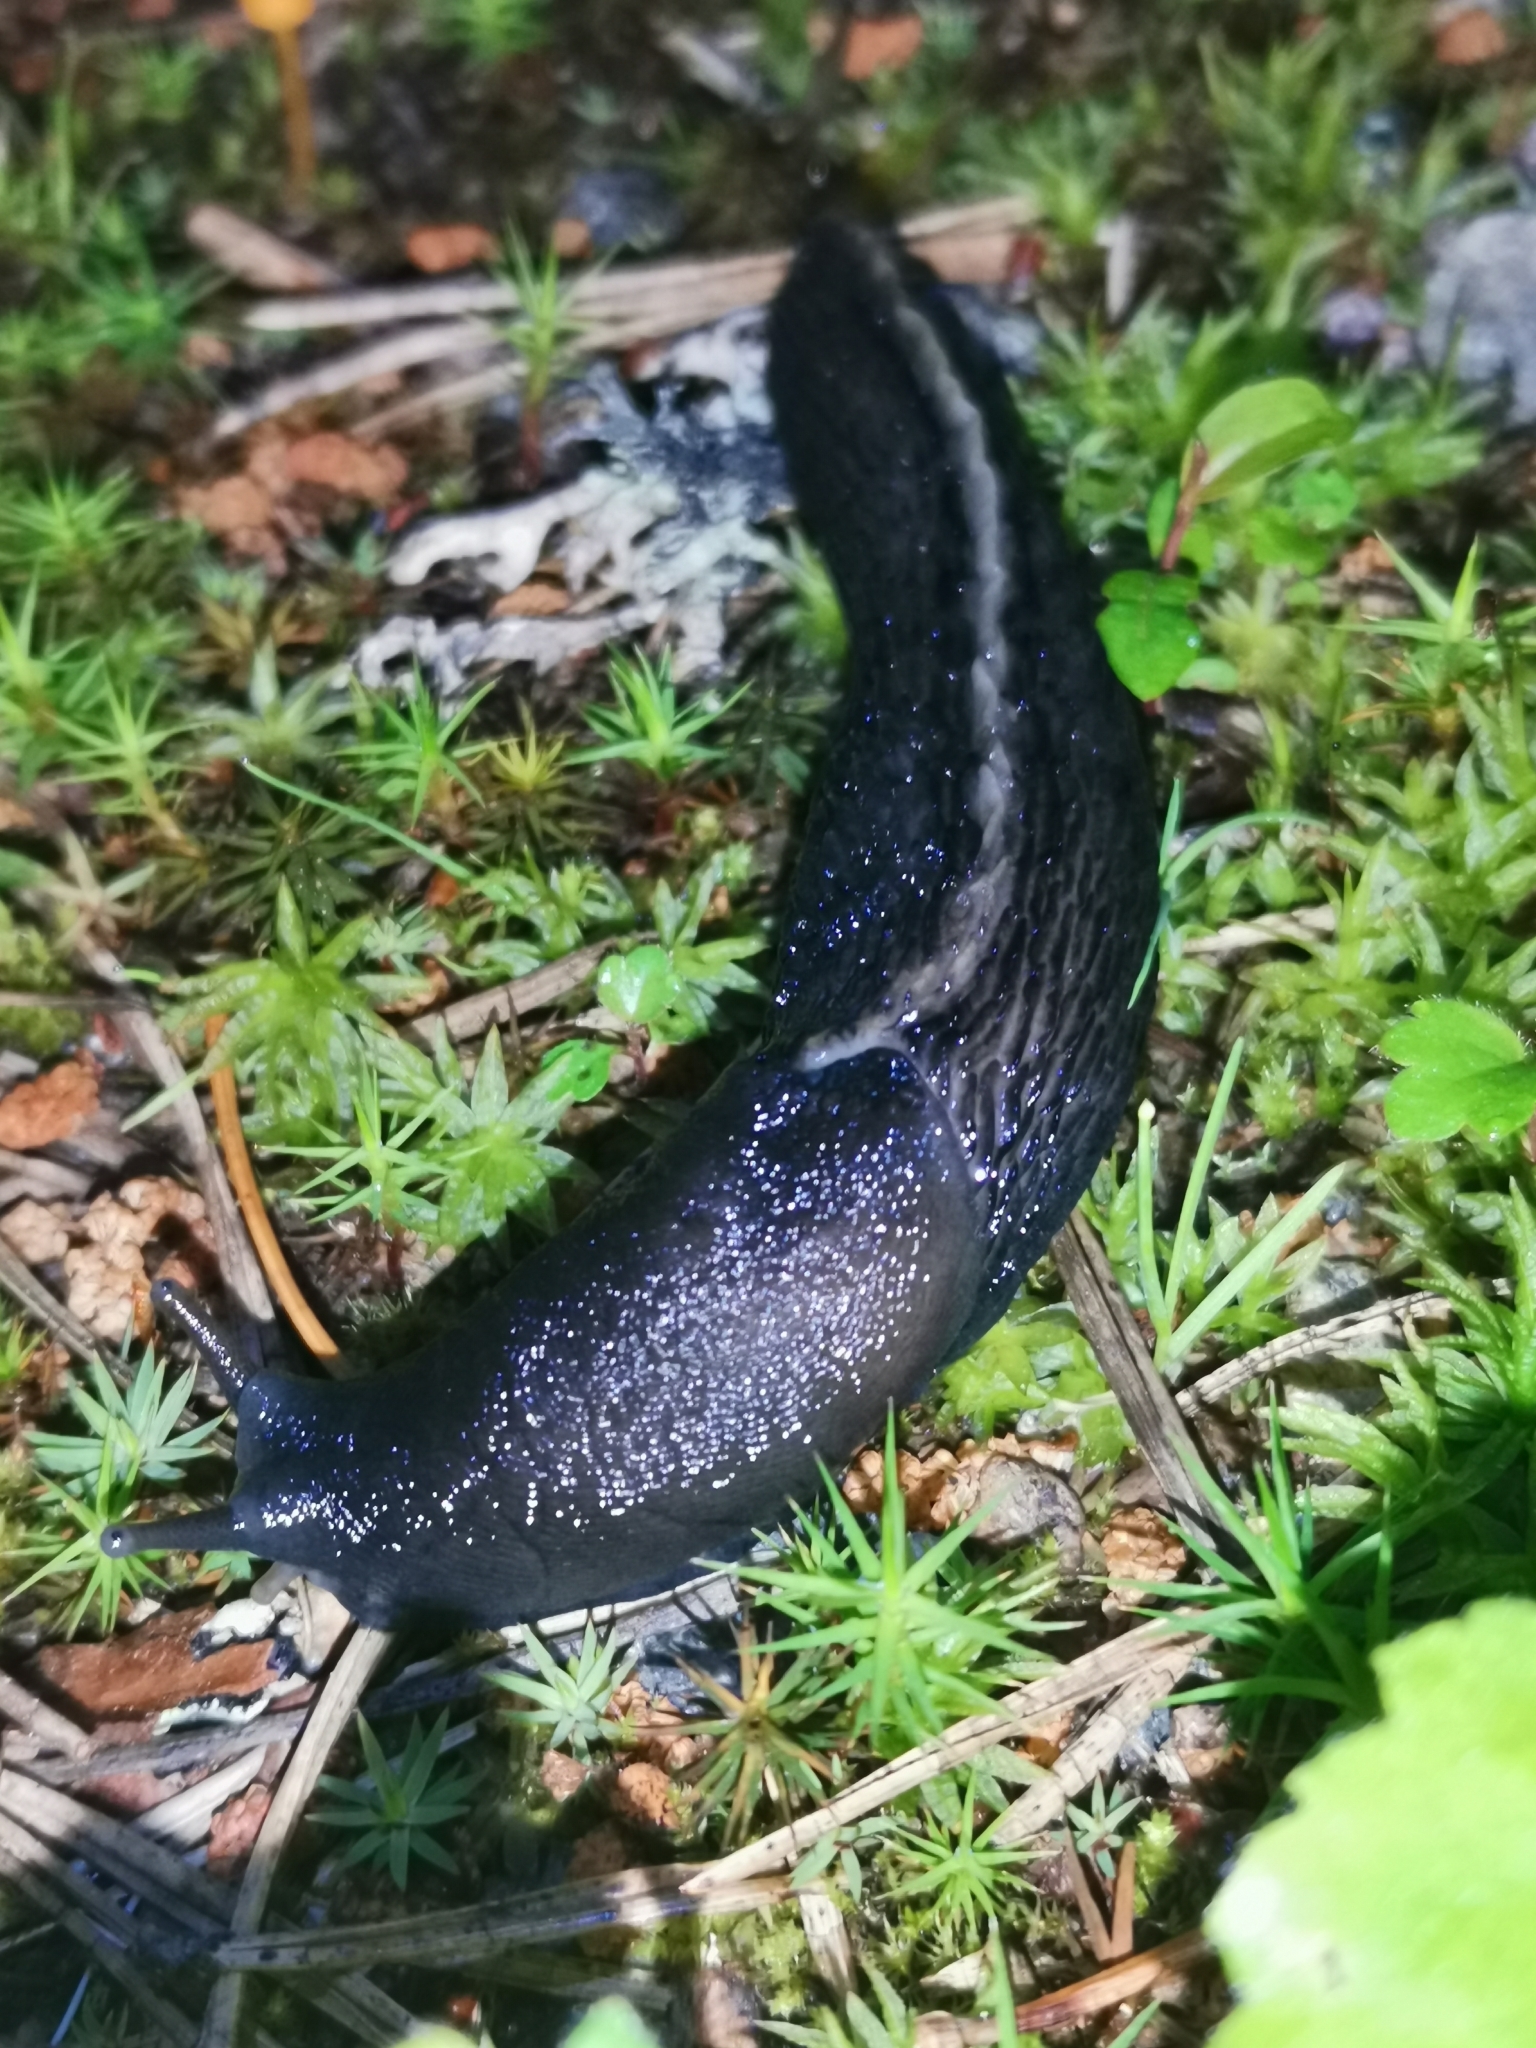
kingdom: Animalia
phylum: Mollusca
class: Gastropoda
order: Stylommatophora
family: Limacidae
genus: Limax
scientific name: Limax cinereoniger
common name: Ash-black slug
